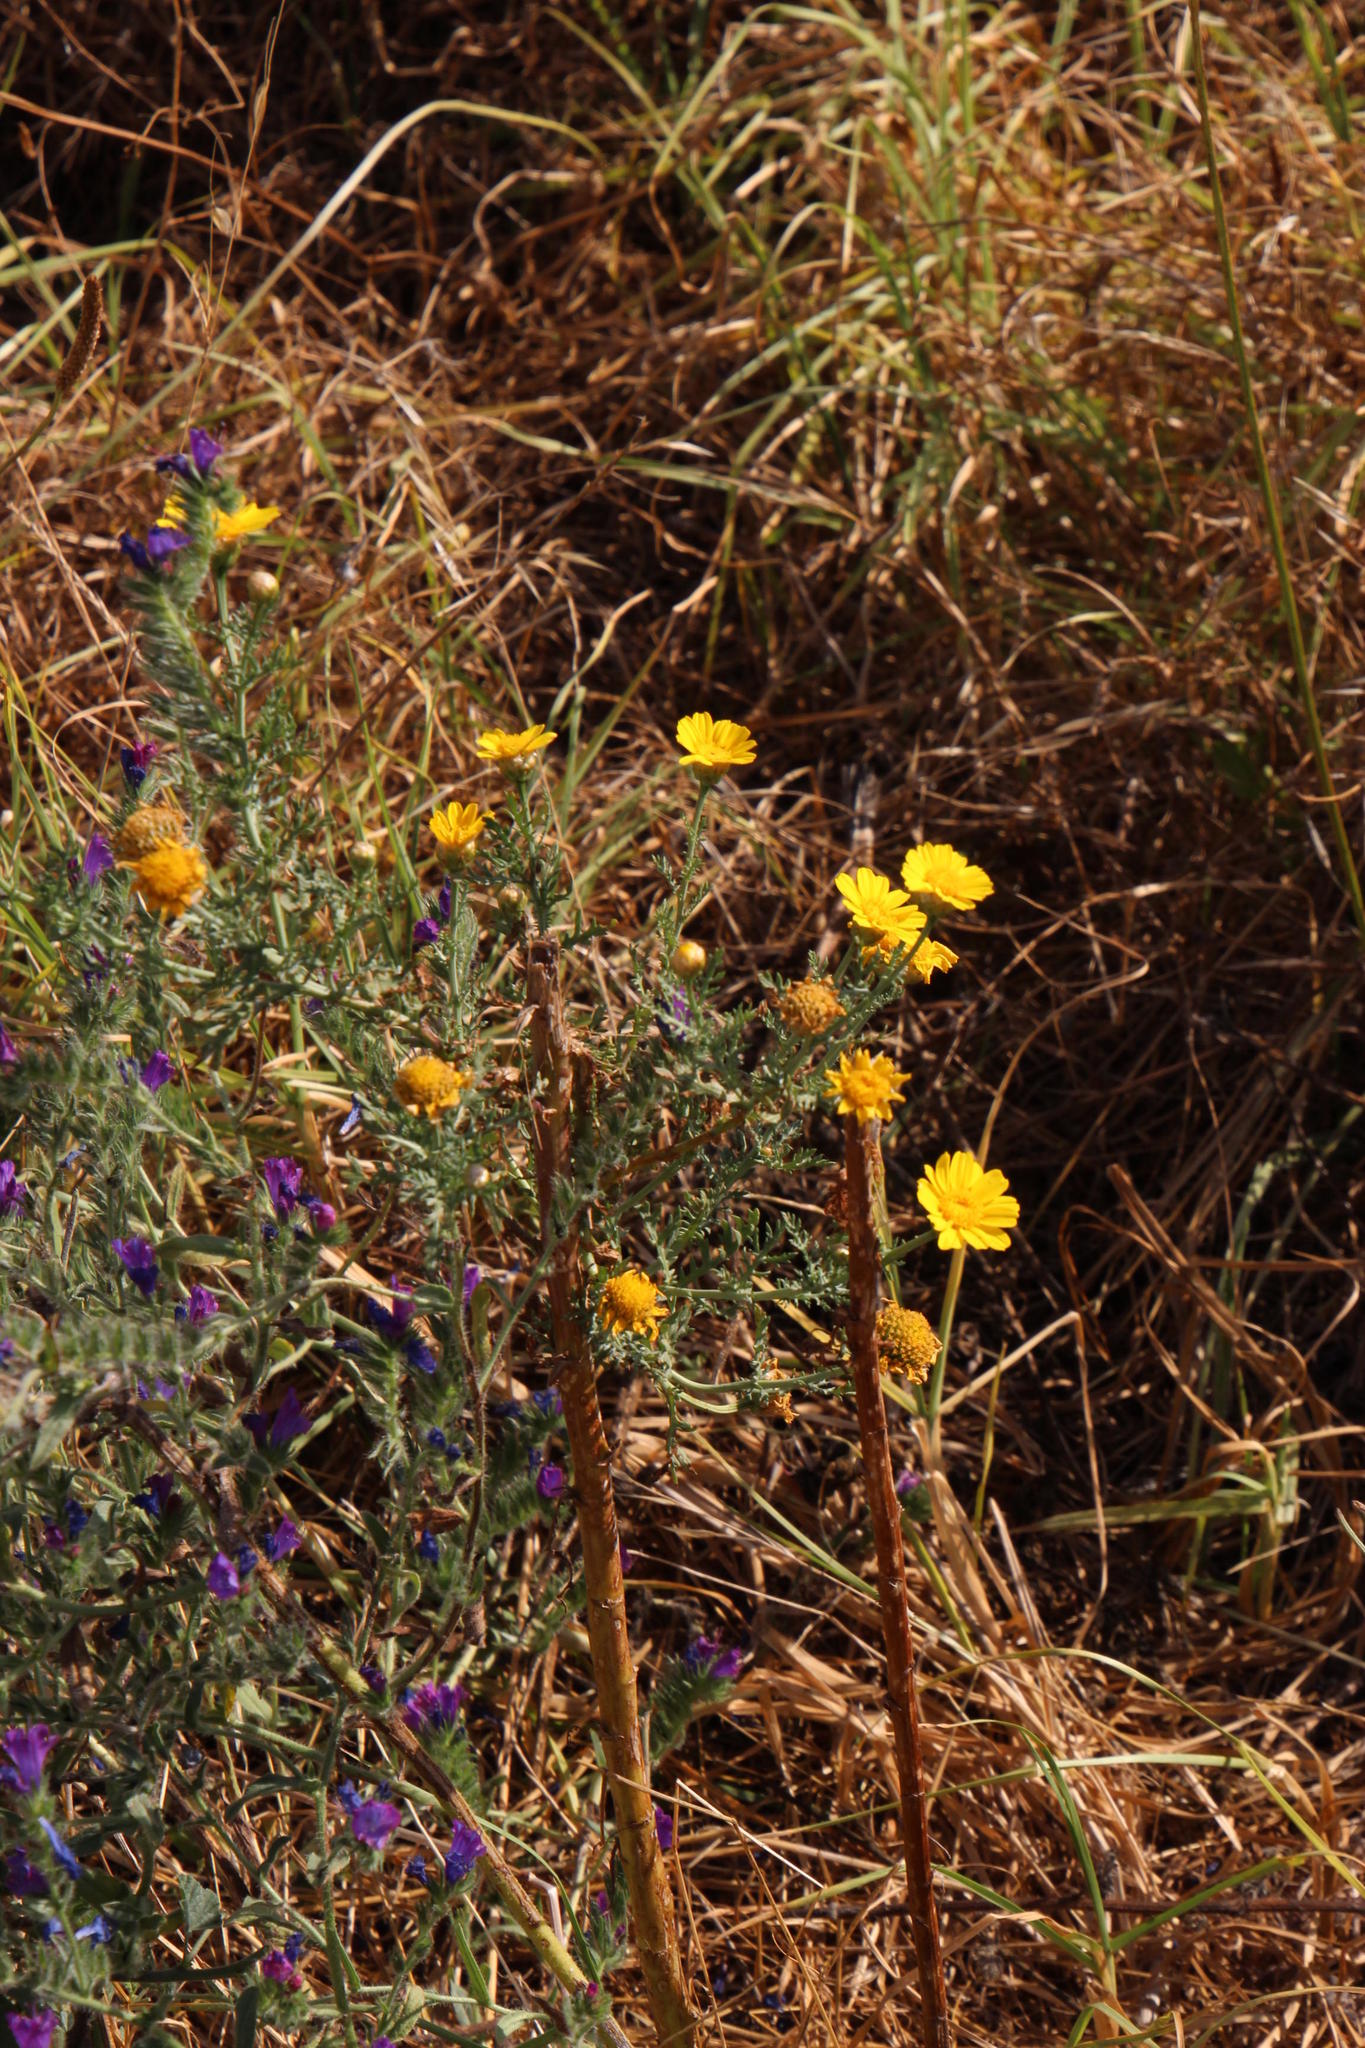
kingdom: Plantae
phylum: Tracheophyta
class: Magnoliopsida
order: Asterales
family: Asteraceae
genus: Glebionis
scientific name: Glebionis coronaria
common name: Crowndaisy
